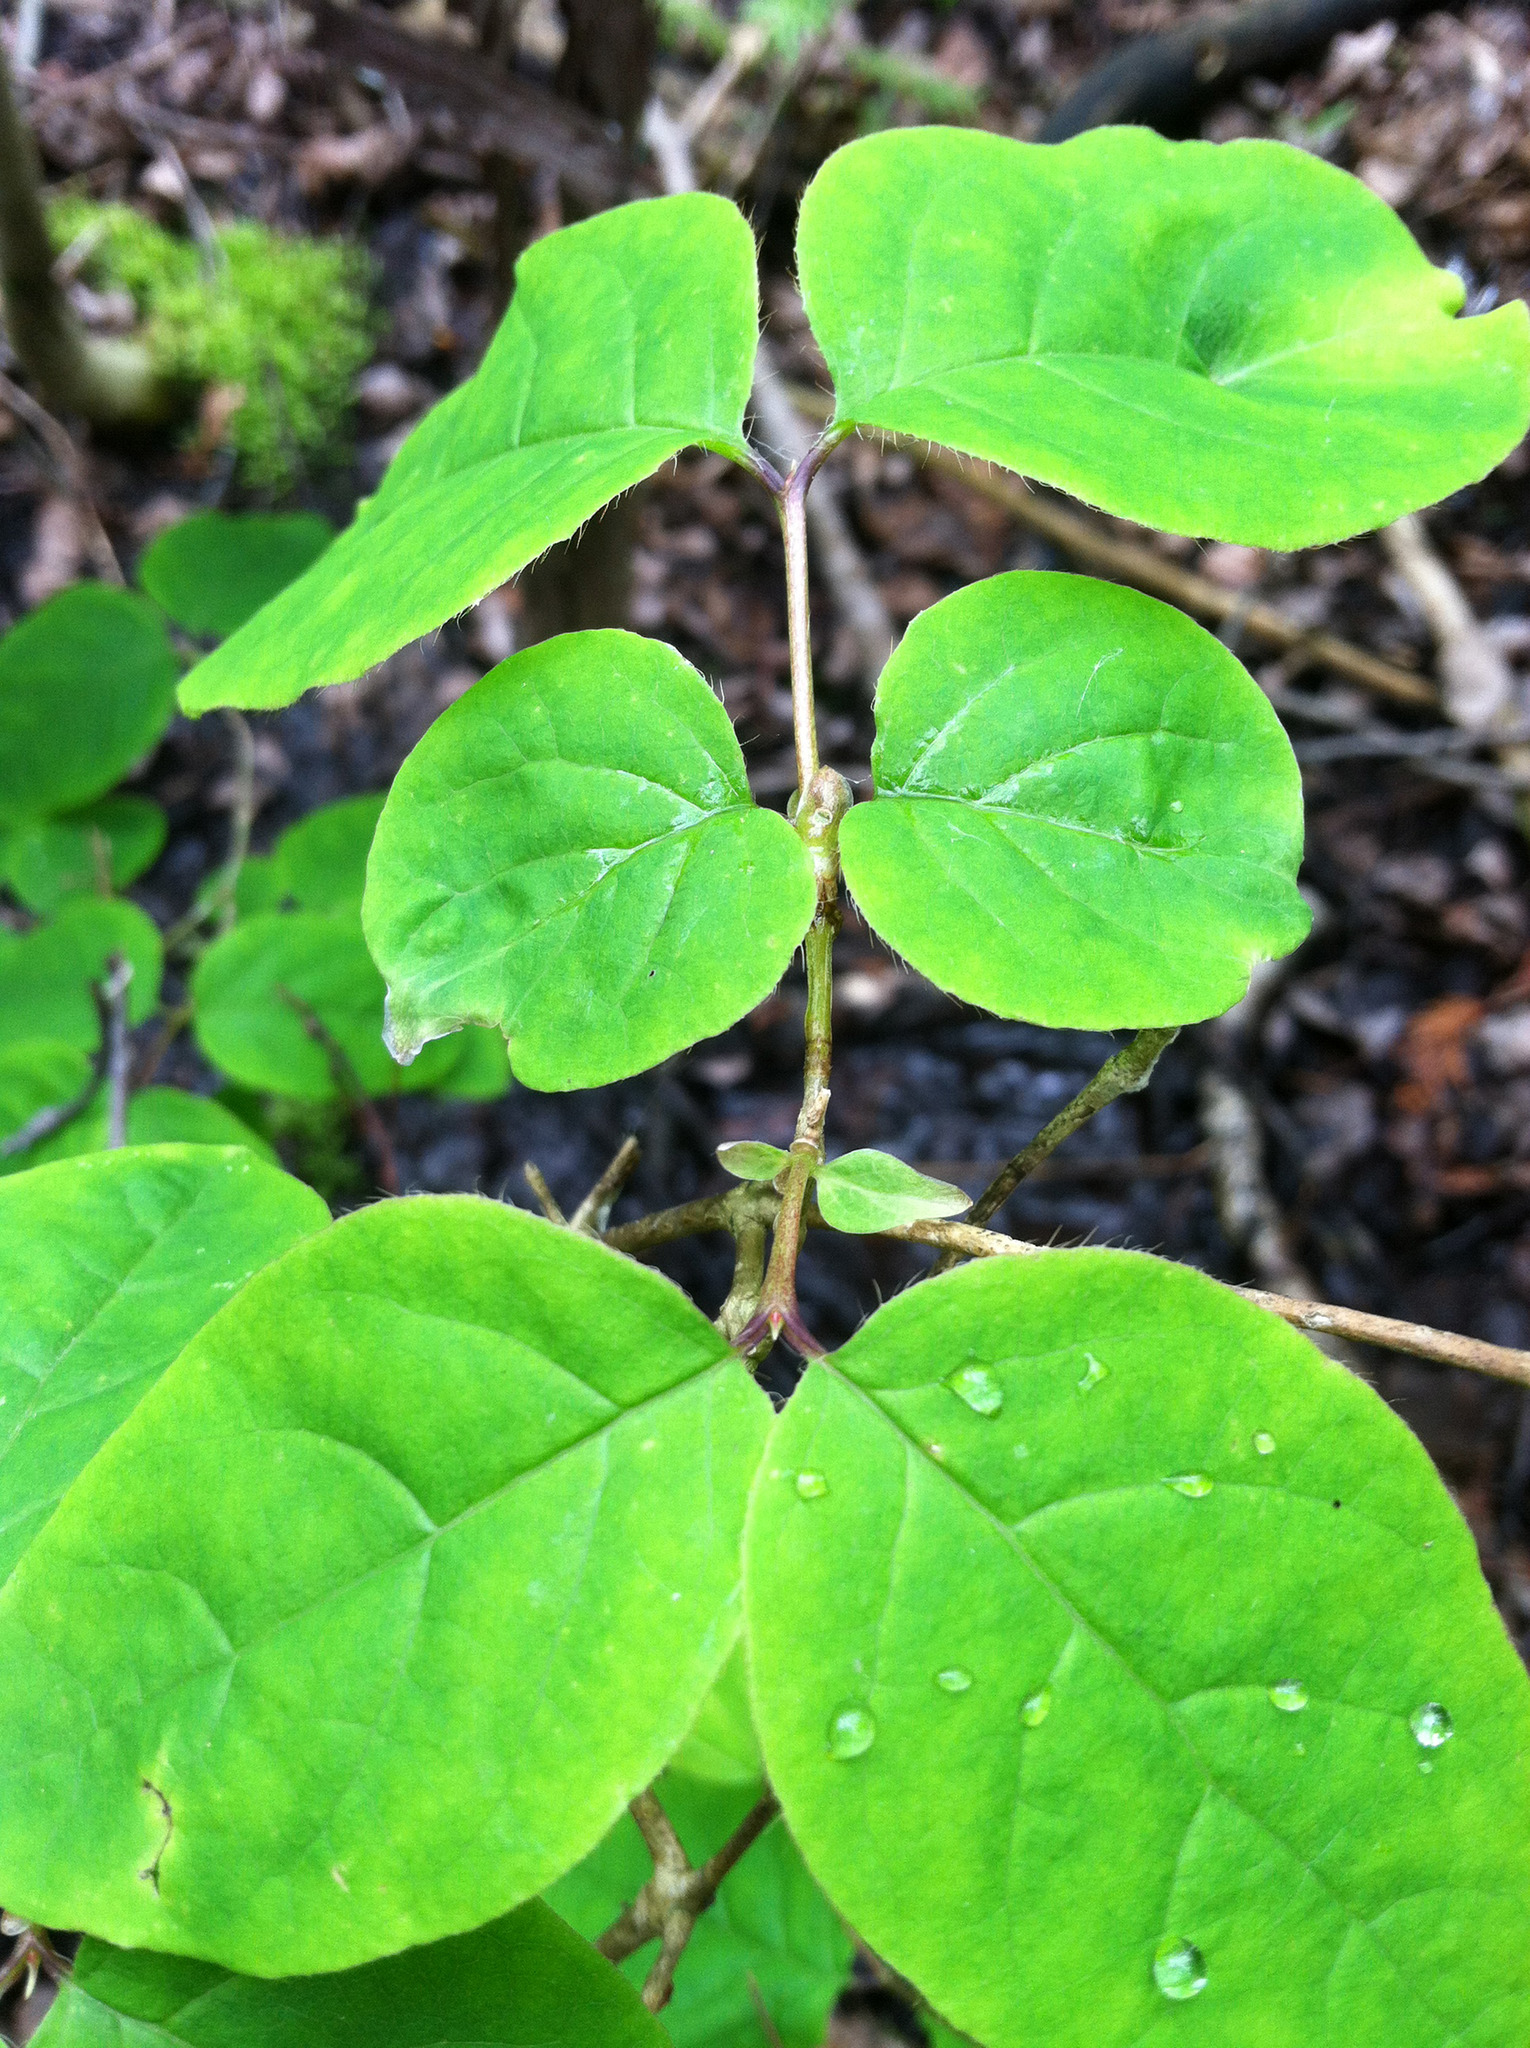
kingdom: Plantae
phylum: Tracheophyta
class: Magnoliopsida
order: Dipsacales
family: Caprifoliaceae
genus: Lonicera
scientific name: Lonicera canadensis
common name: American fly-honeysuckle
